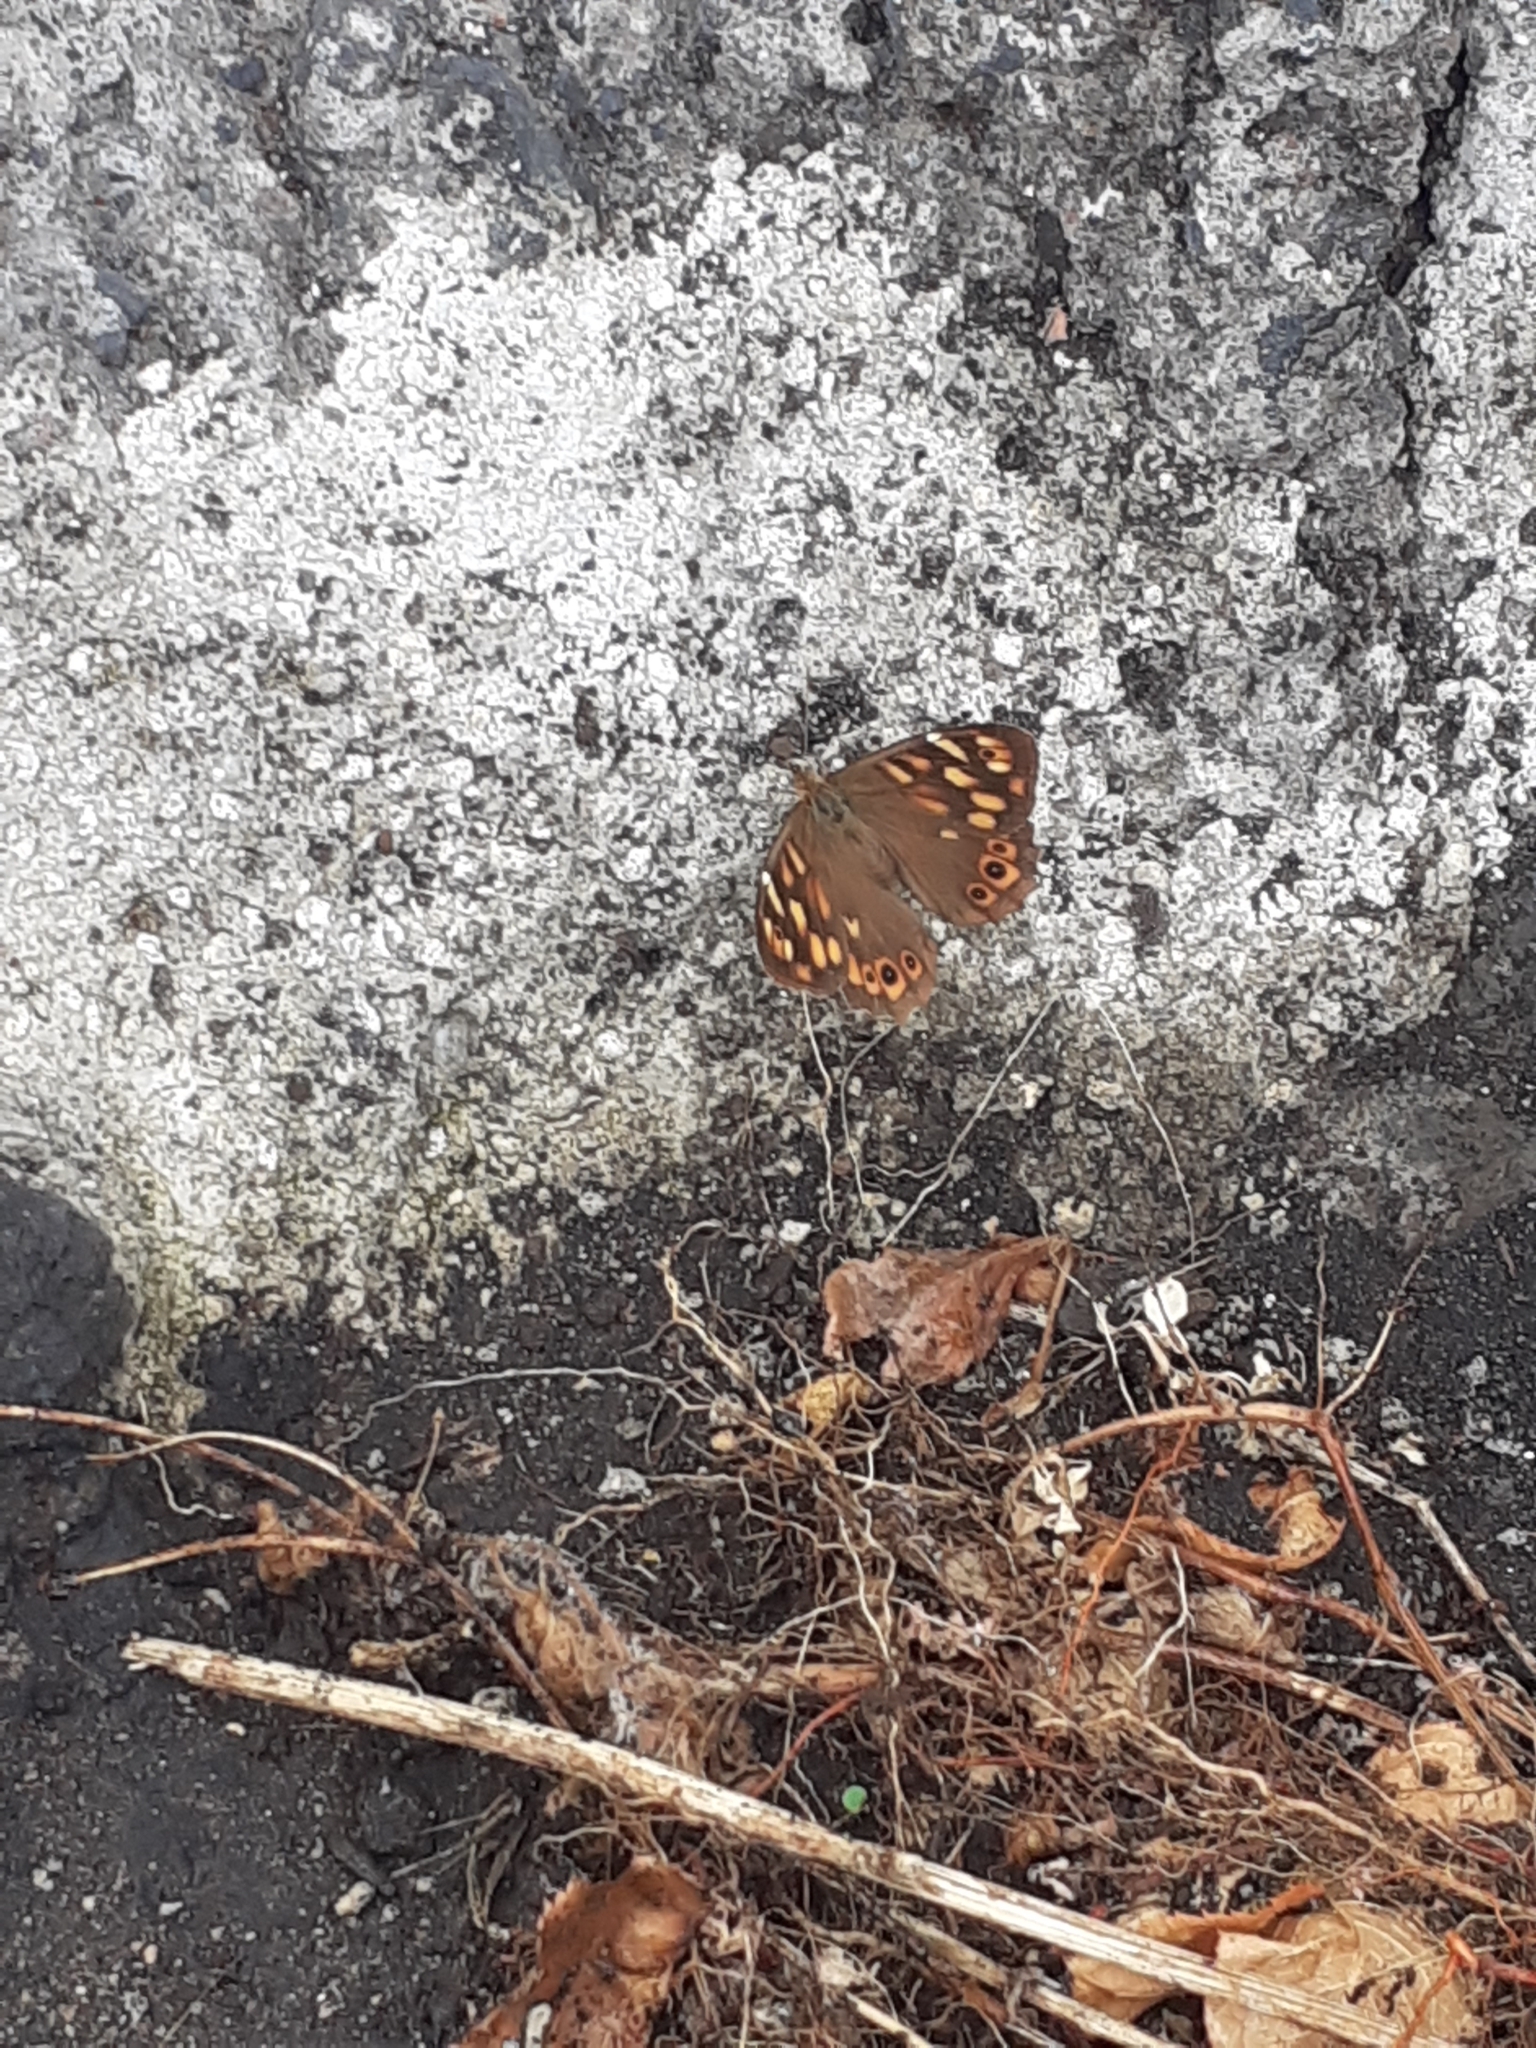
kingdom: Animalia
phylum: Arthropoda
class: Insecta
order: Lepidoptera
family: Nymphalidae
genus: Pararge
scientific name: Pararge aegeria
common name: Speckled wood
